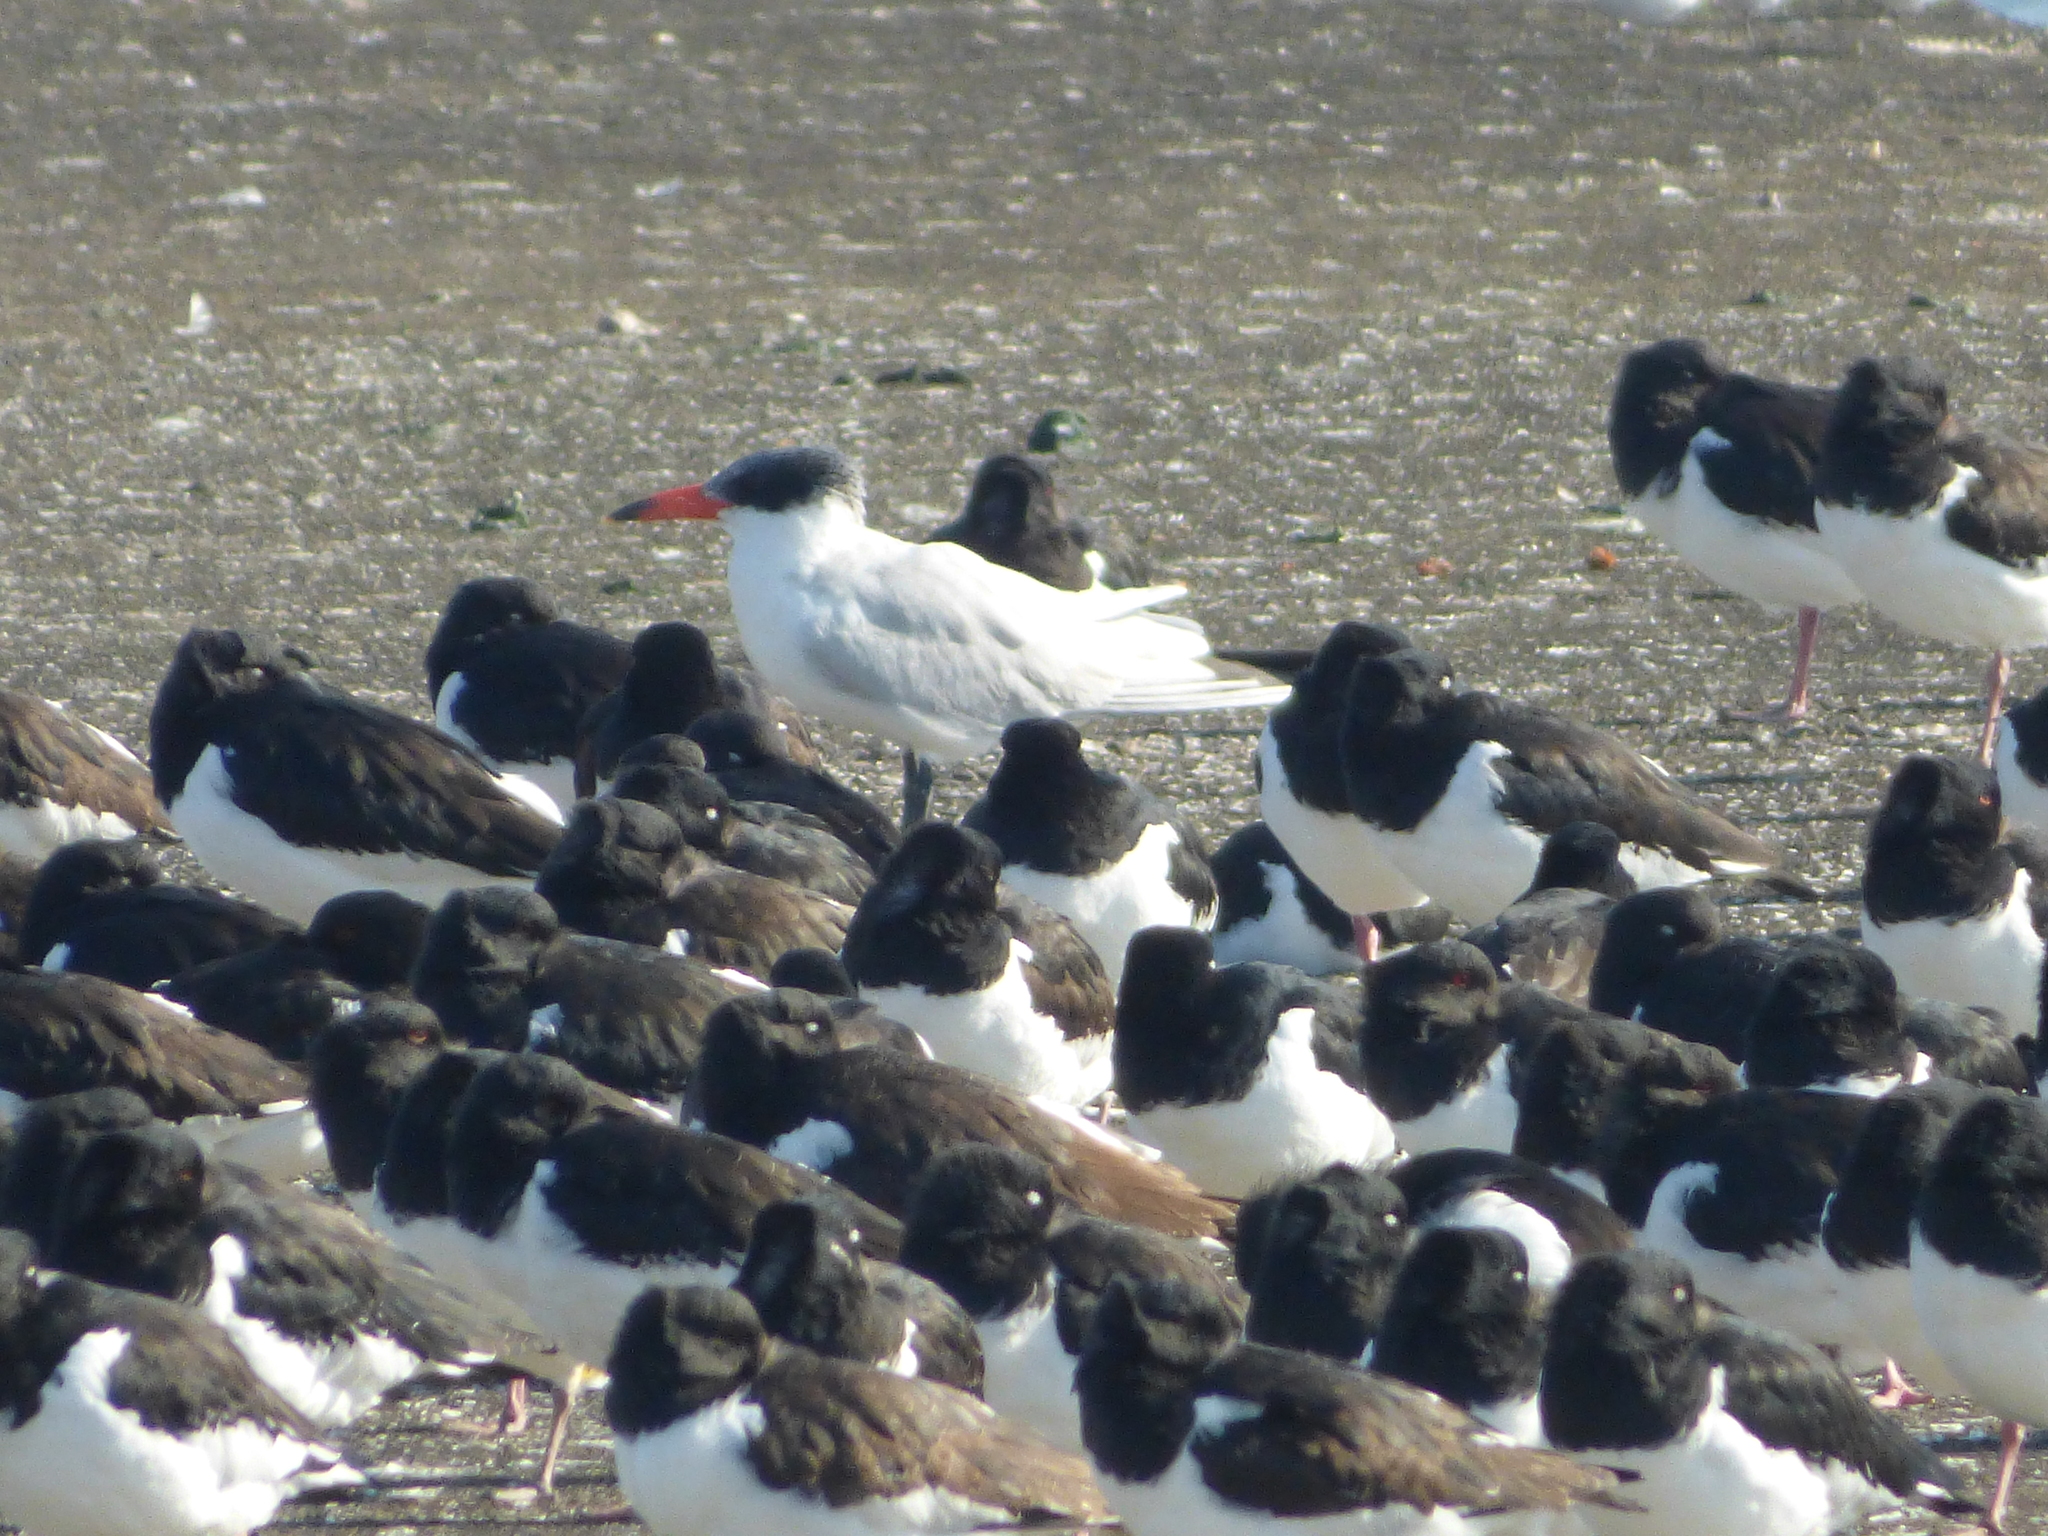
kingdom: Animalia
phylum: Chordata
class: Aves
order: Charadriiformes
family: Laridae
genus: Hydroprogne
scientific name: Hydroprogne caspia
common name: Caspian tern
